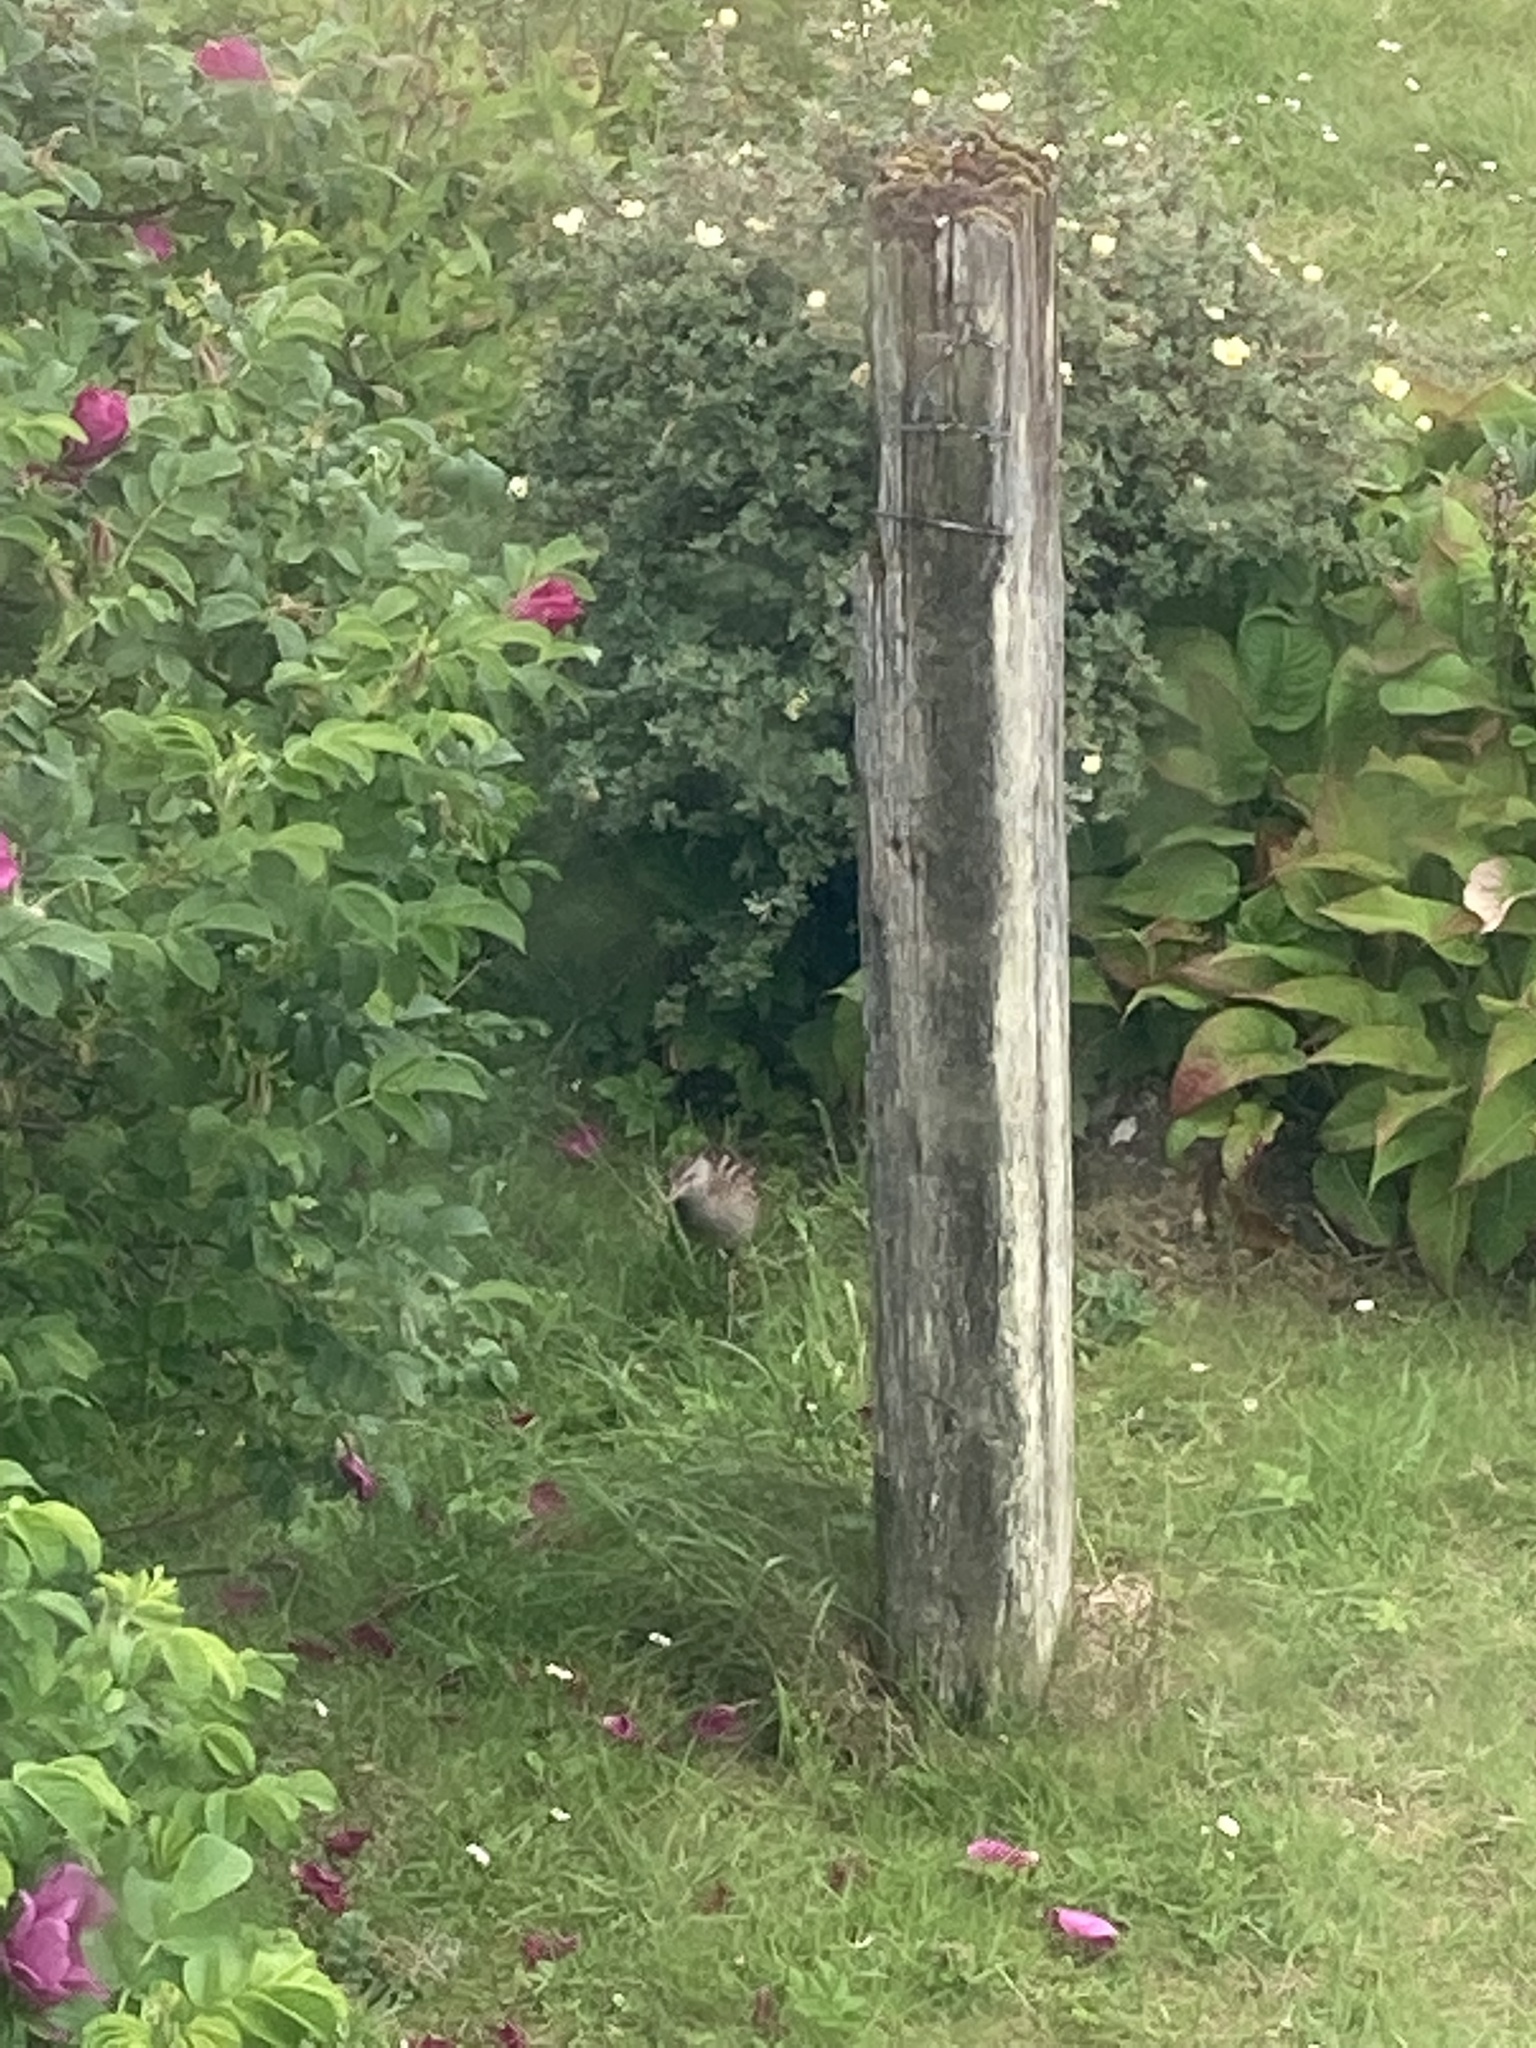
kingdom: Animalia
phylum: Chordata
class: Aves
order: Gruiformes
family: Rallidae
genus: Crex
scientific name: Crex crex
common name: Corn crake
